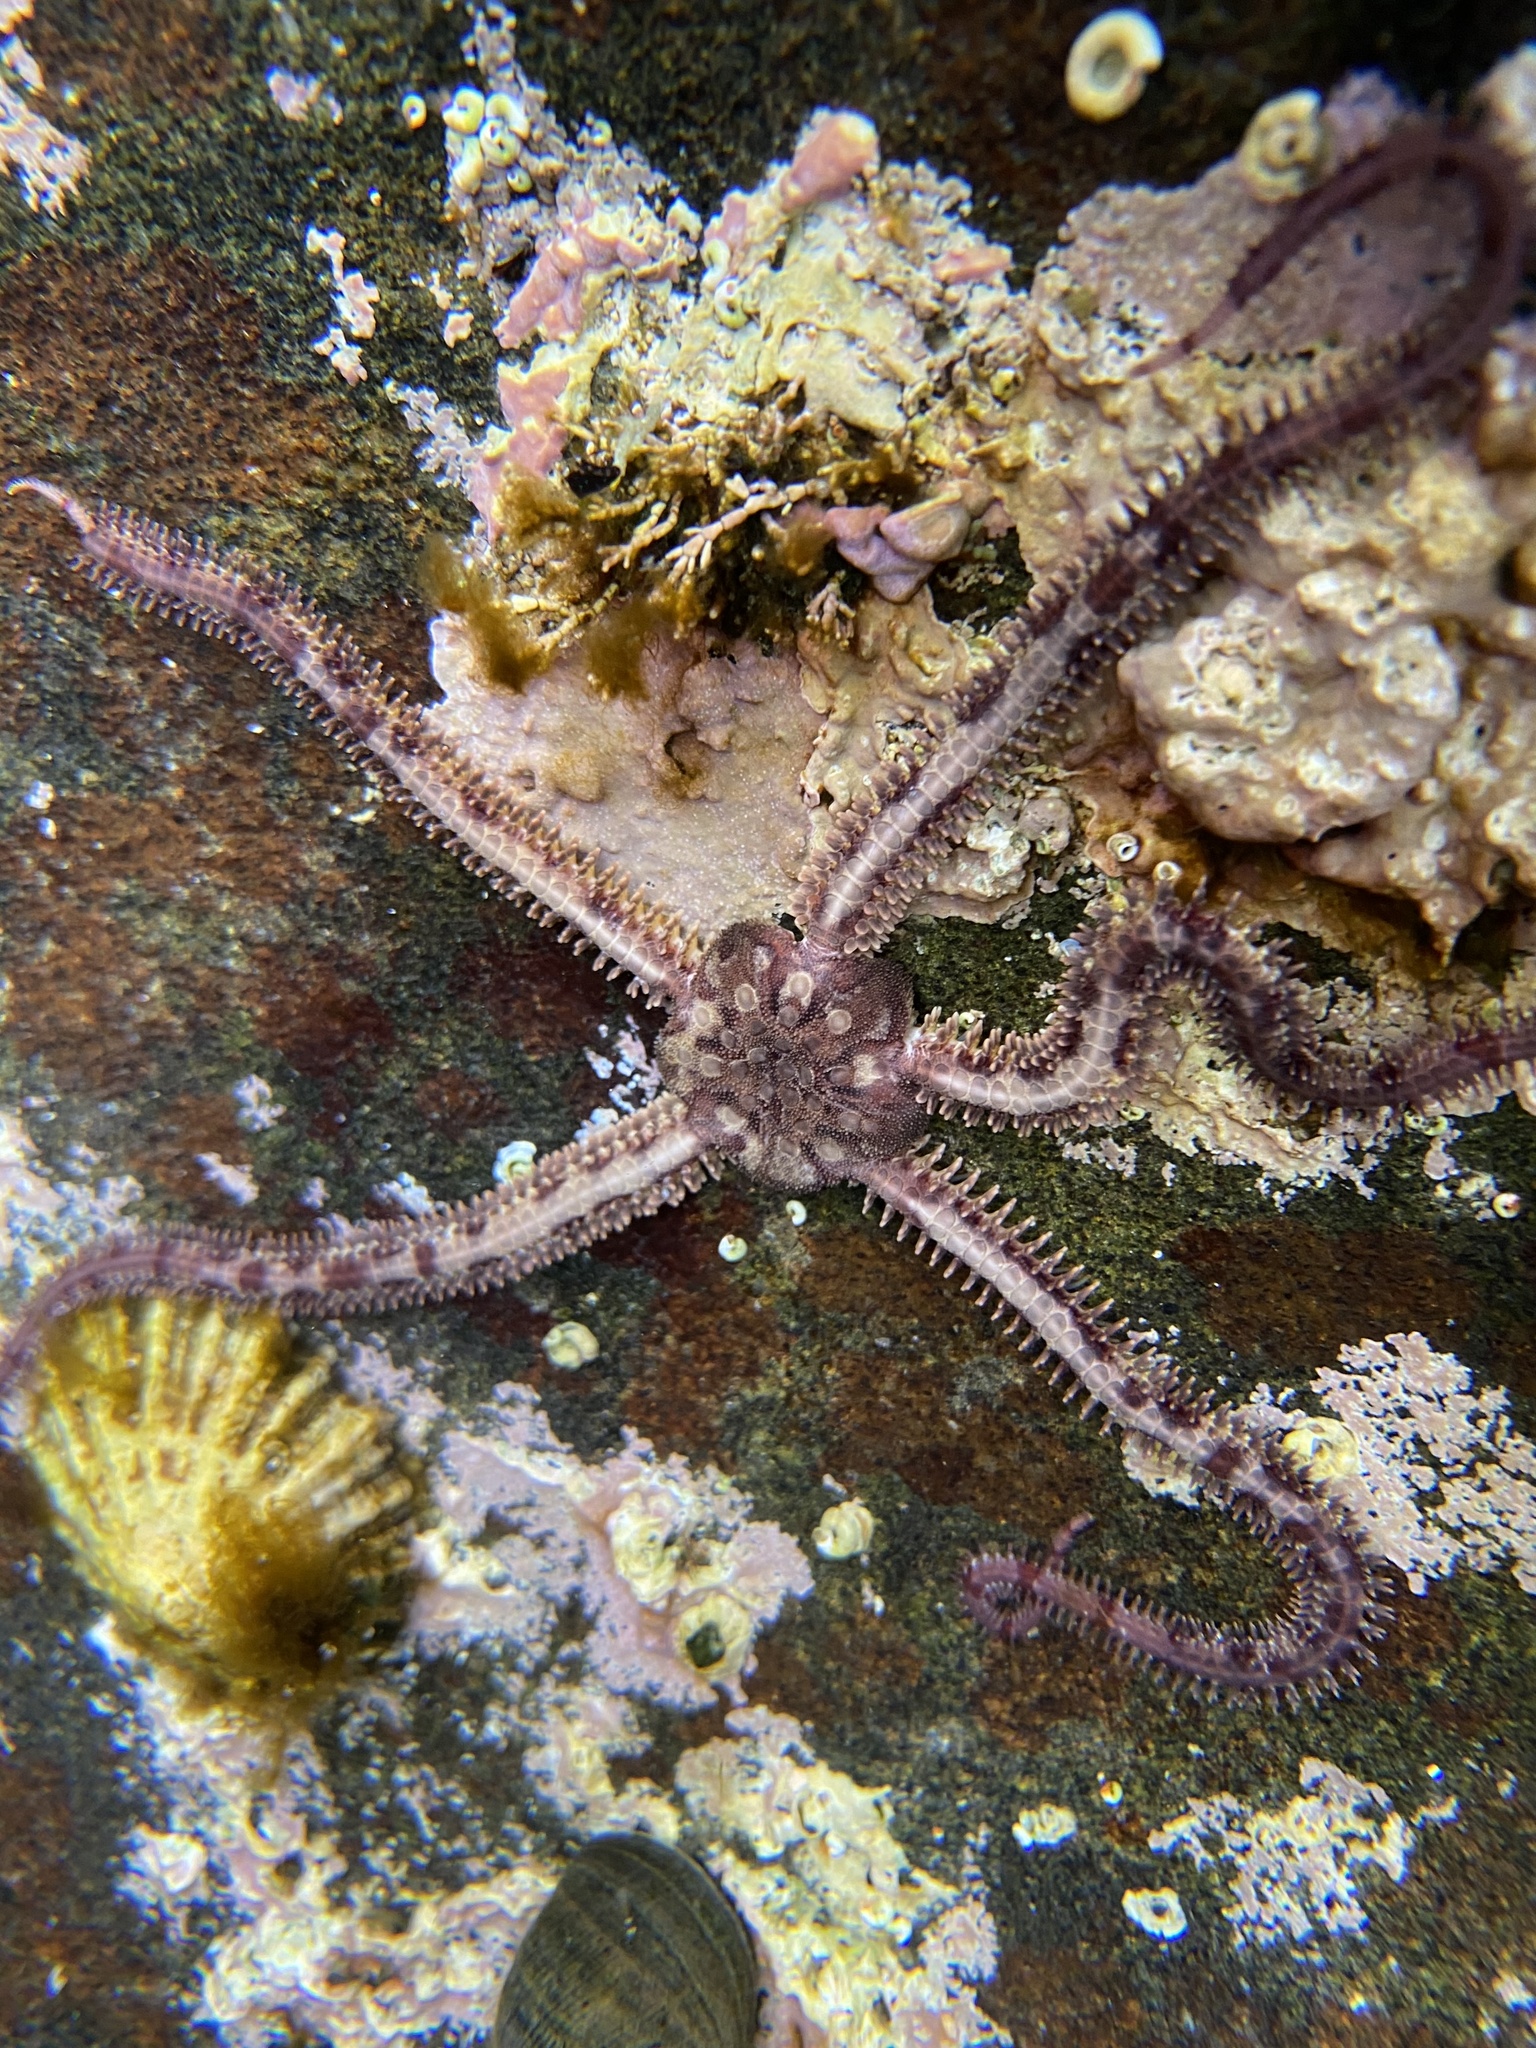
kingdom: Animalia
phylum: Echinodermata
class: Ophiuroidea
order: Amphilepidida
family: Ophiopholidae
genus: Ophiopholis
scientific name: Ophiopholis aculeata
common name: Crevice brittlestar
